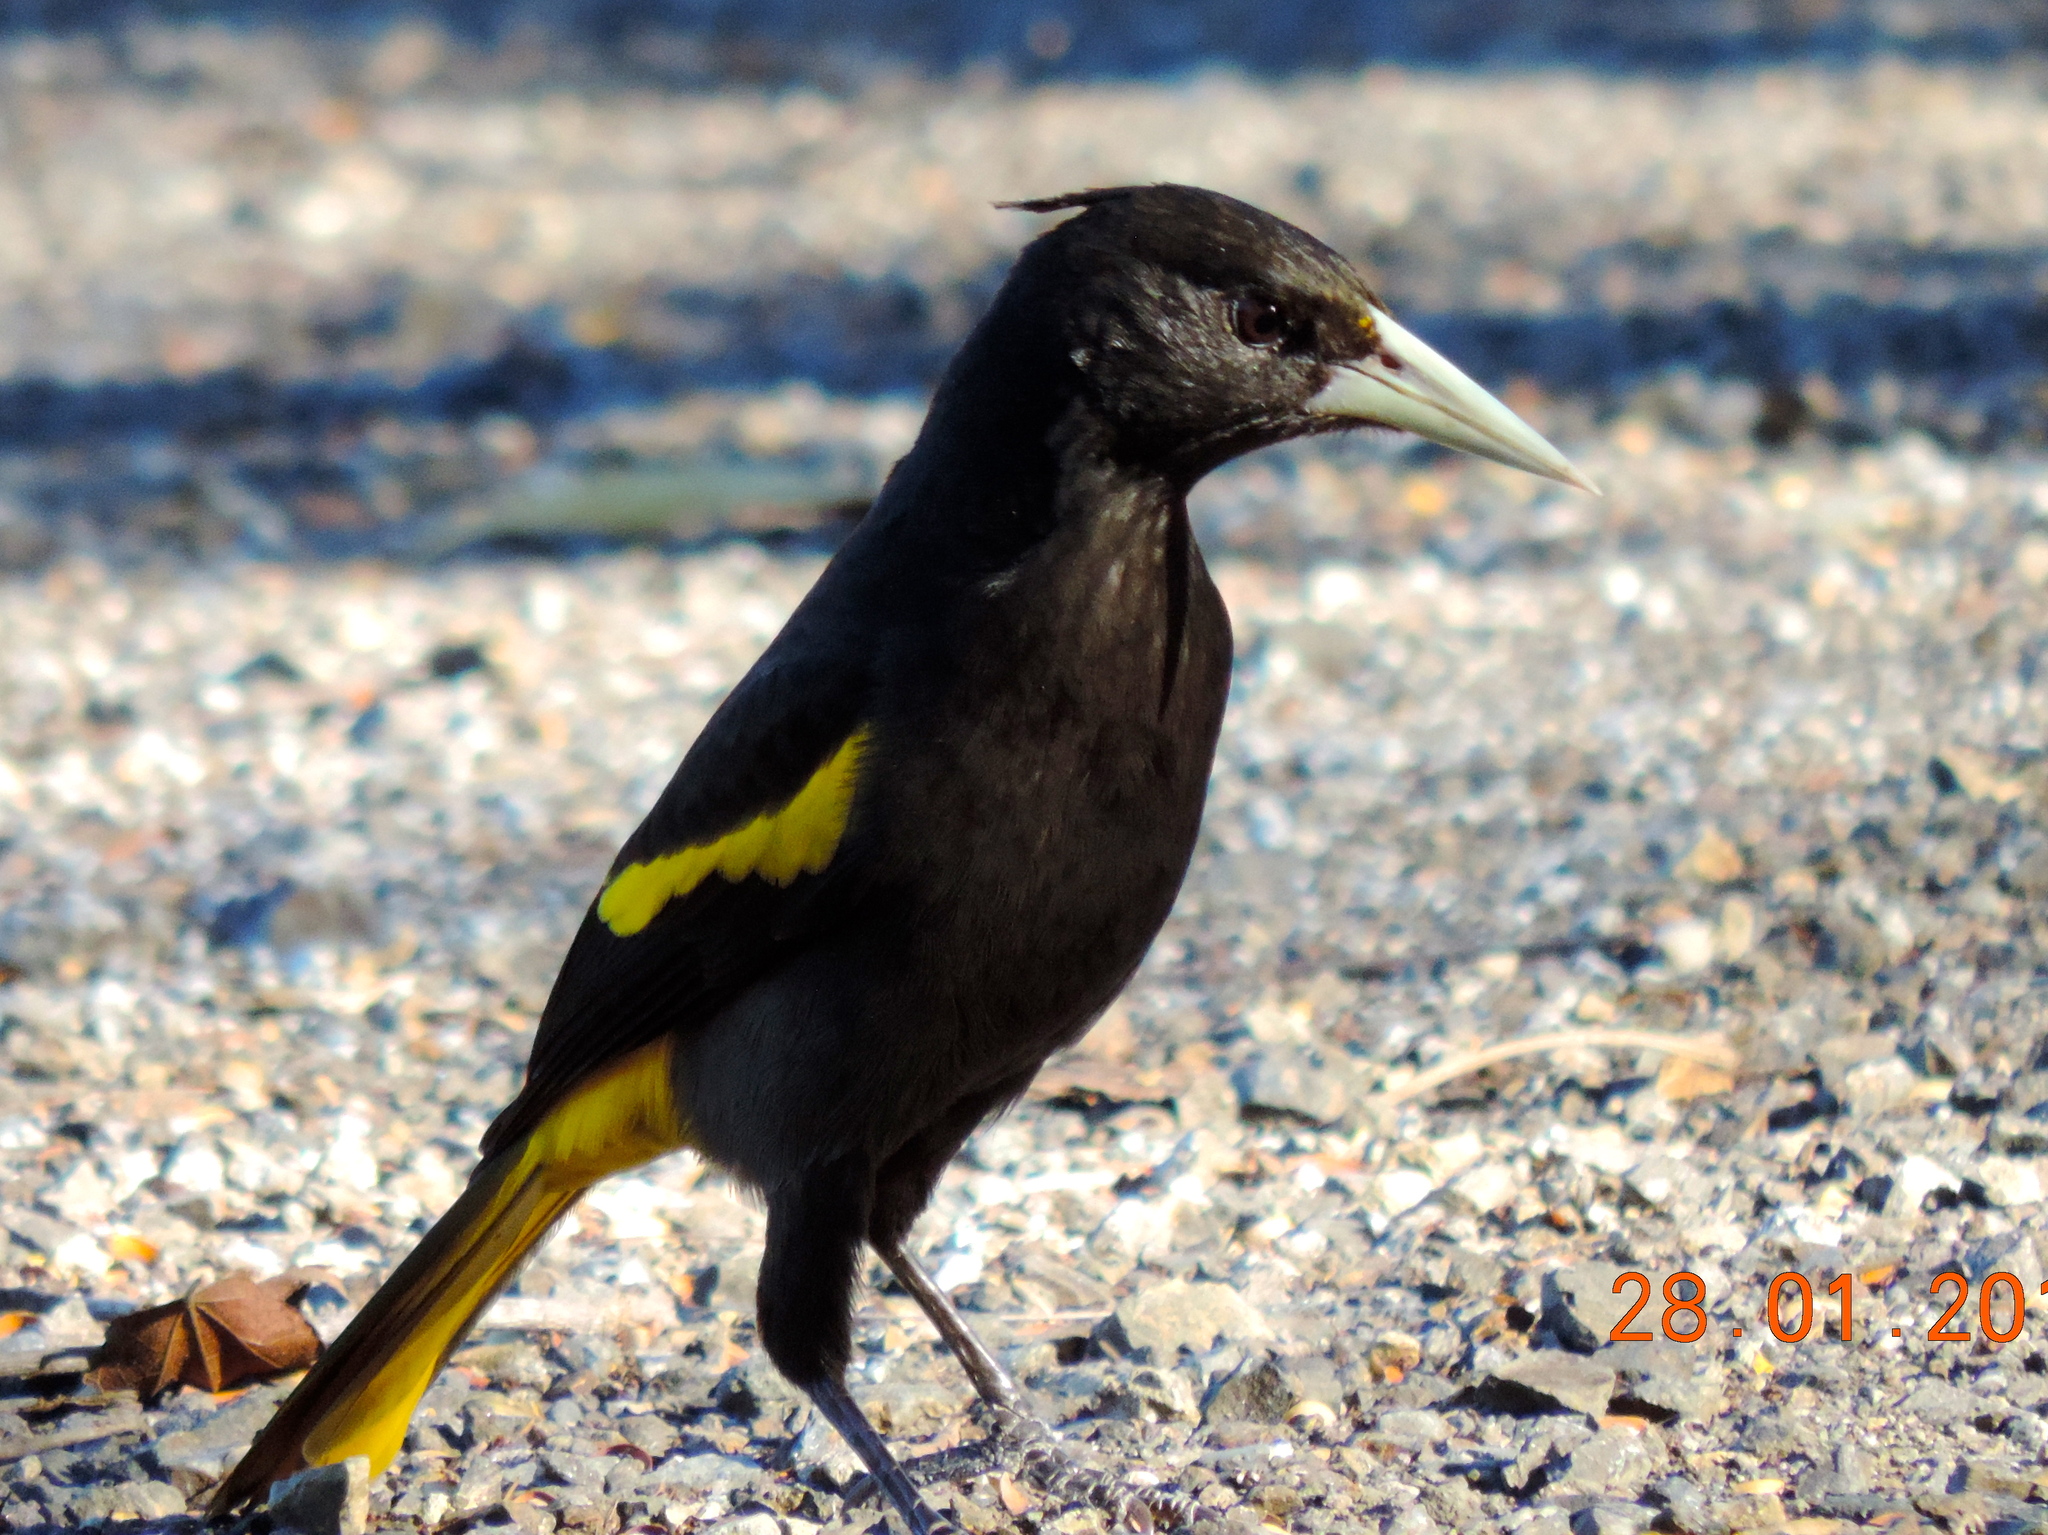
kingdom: Animalia
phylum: Chordata
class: Aves
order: Passeriformes
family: Icteridae
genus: Cacicus
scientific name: Cacicus melanicterus
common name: Yellow-winged cacique
